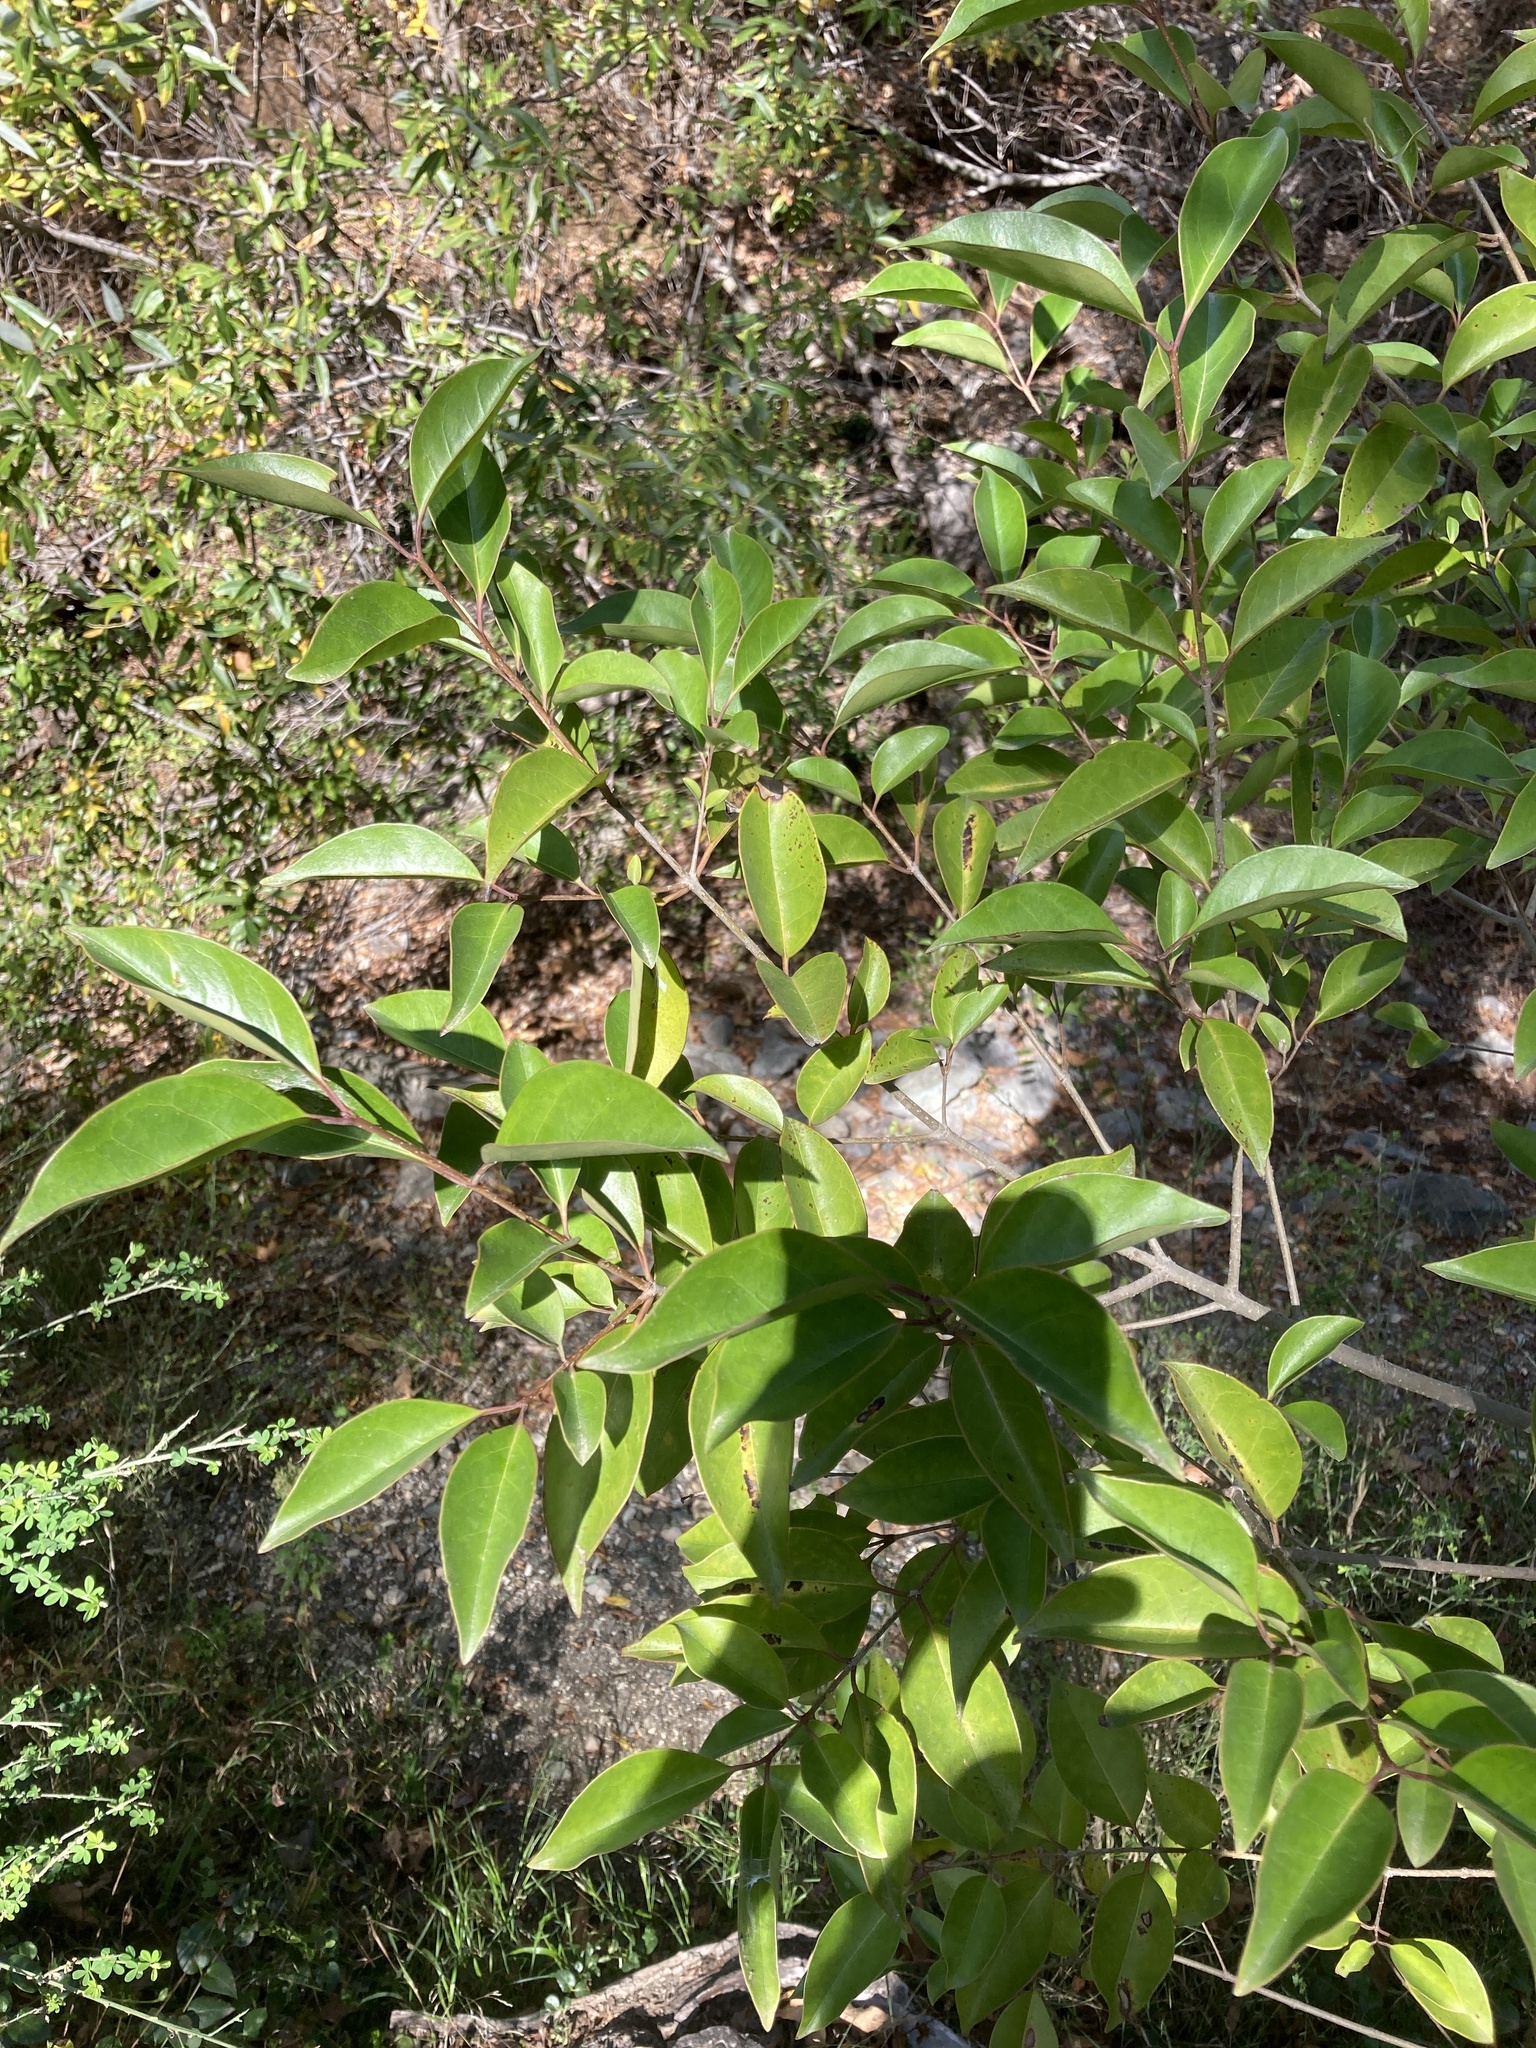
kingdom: Plantae
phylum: Tracheophyta
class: Magnoliopsida
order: Lamiales
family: Oleaceae
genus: Ligustrum
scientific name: Ligustrum lucidum
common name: Glossy privet
